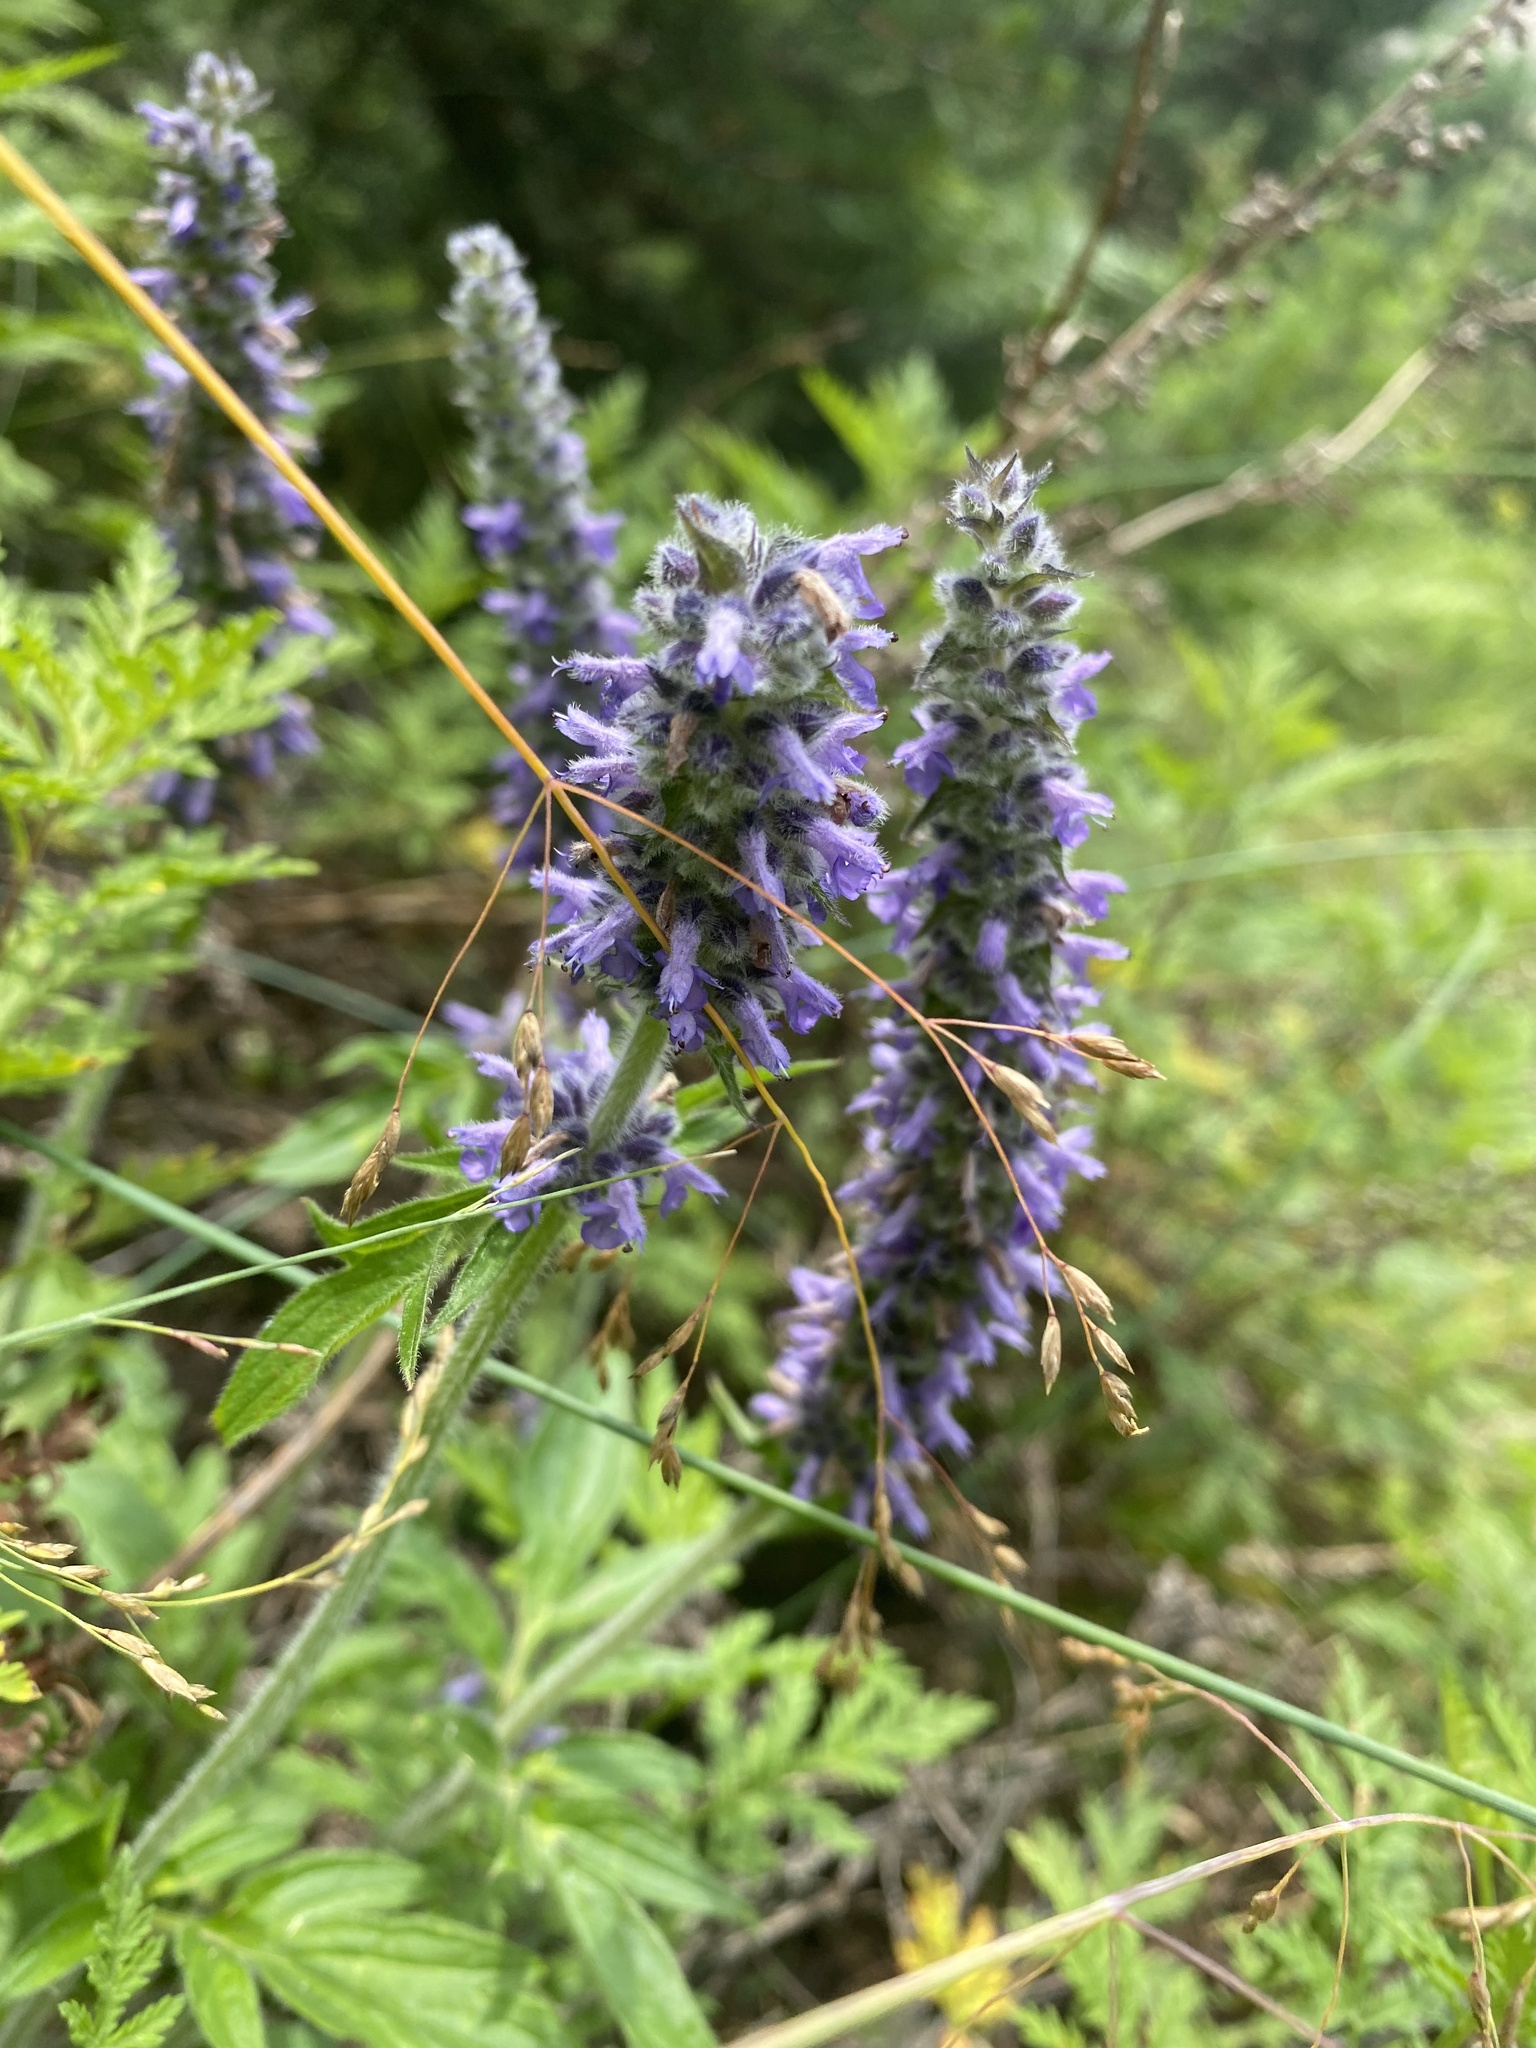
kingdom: Plantae
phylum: Tracheophyta
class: Magnoliopsida
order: Lamiales
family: Lamiaceae
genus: Nepeta
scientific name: Nepeta multifida
